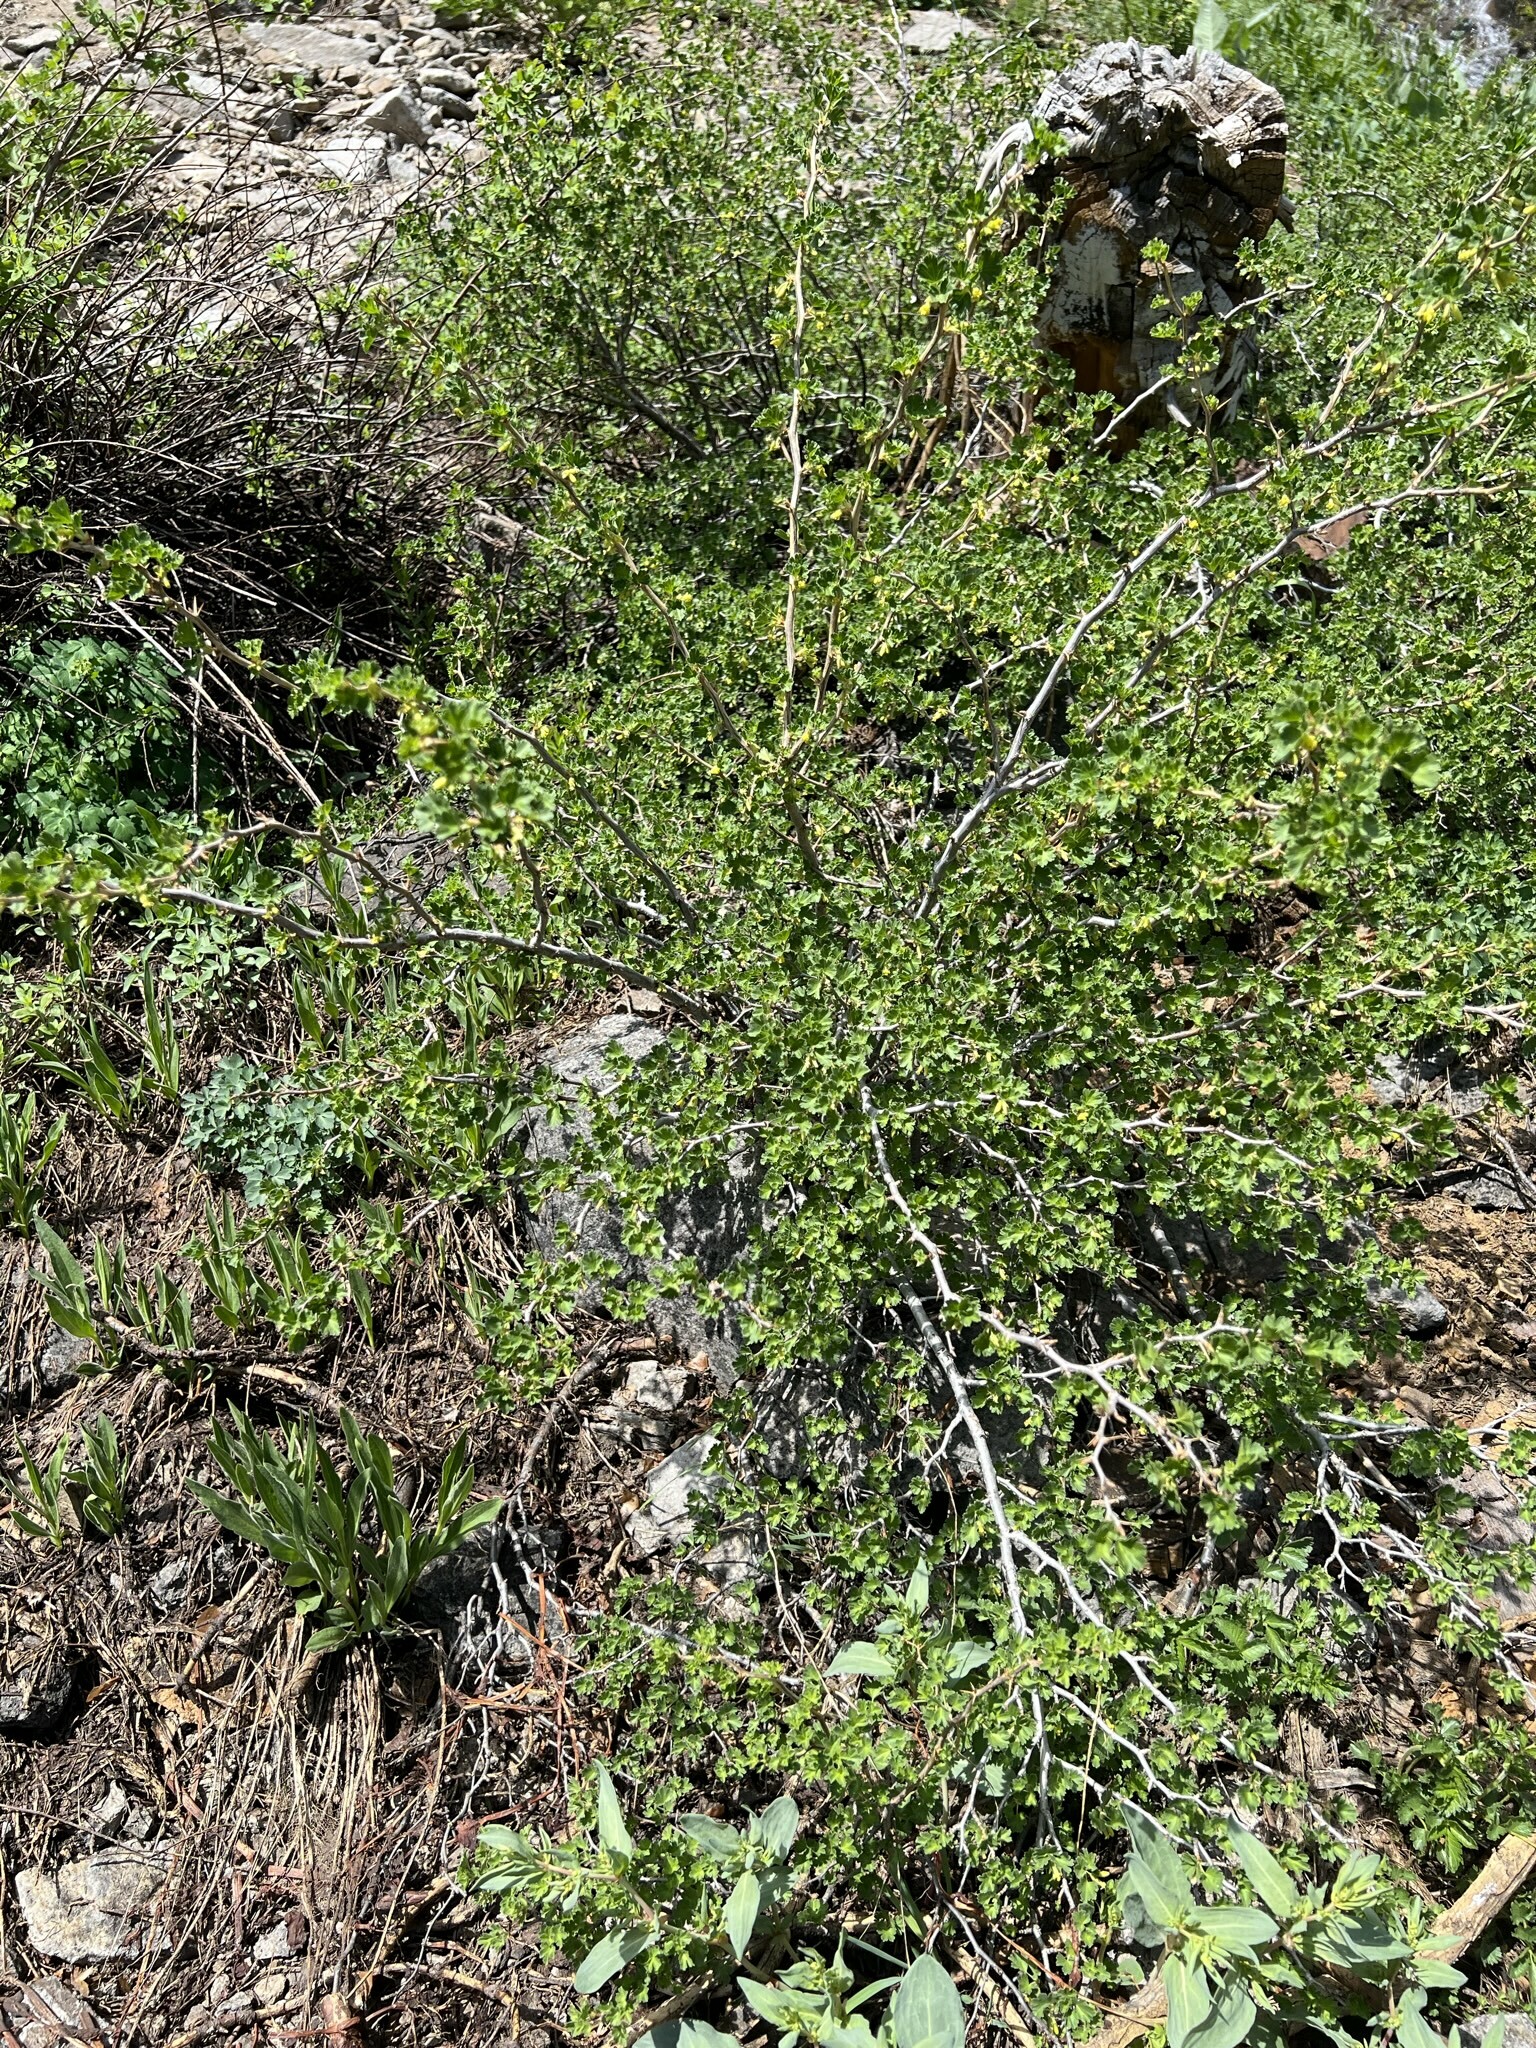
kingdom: Plantae
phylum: Tracheophyta
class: Magnoliopsida
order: Saxifragales
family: Grossulariaceae
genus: Ribes
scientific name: Ribes lasianthum
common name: Alpine gooseberry
